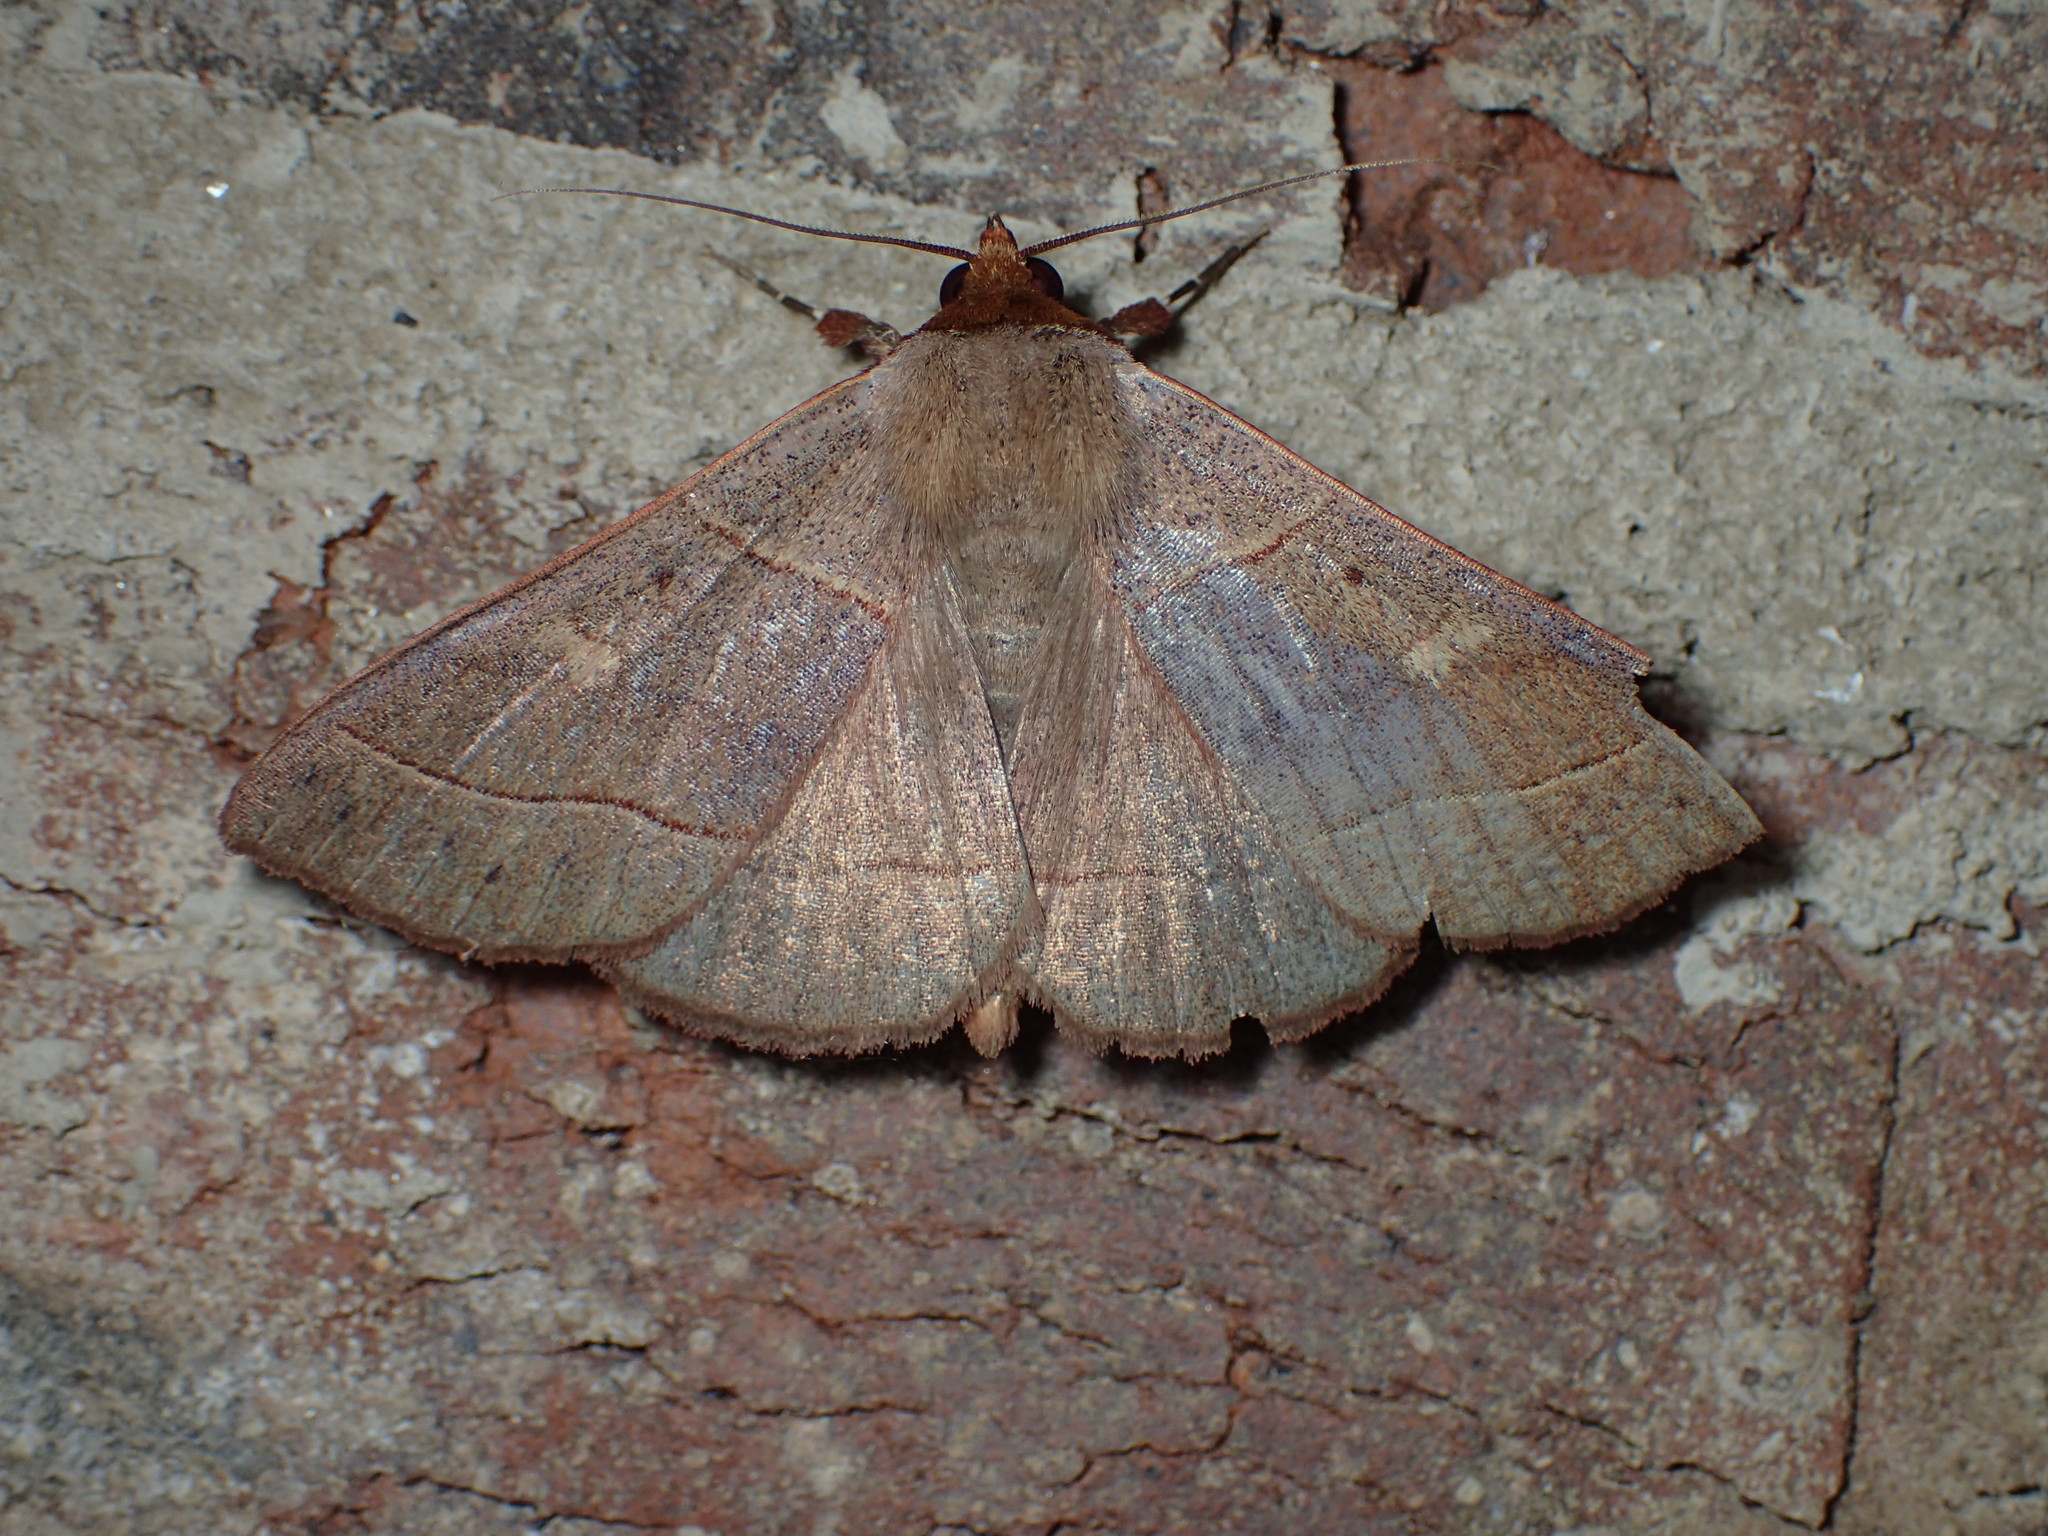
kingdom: Animalia
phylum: Arthropoda
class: Insecta
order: Lepidoptera
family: Erebidae
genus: Panopoda
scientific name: Panopoda rufimargo
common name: Red-lined panopoda moth
